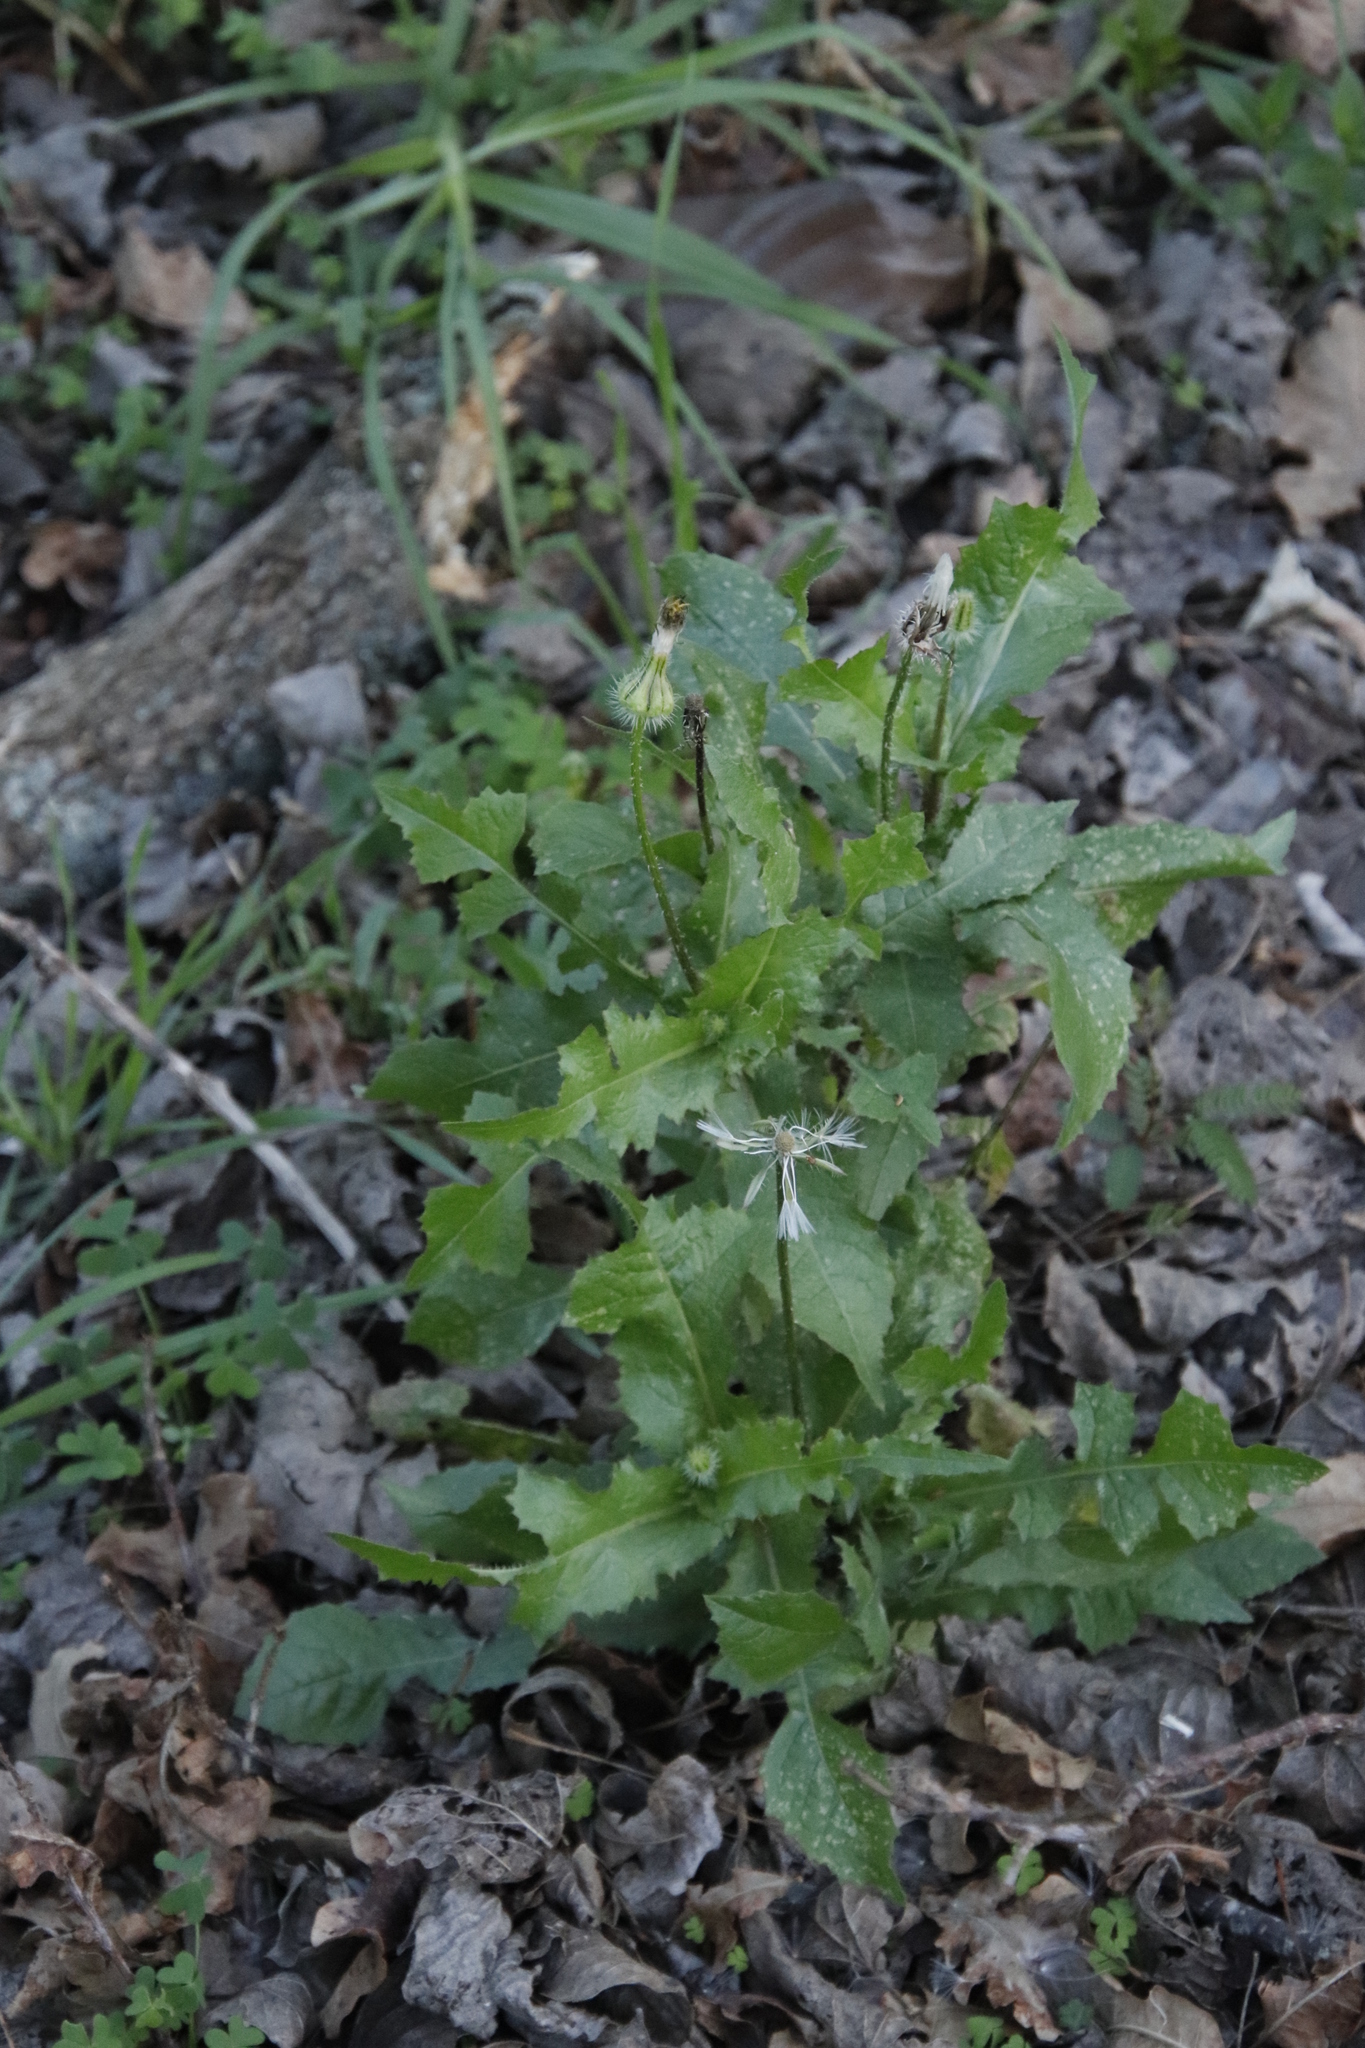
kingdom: Plantae
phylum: Tracheophyta
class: Magnoliopsida
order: Asterales
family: Asteraceae
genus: Sonchus
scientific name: Sonchus oleraceus
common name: Common sowthistle
